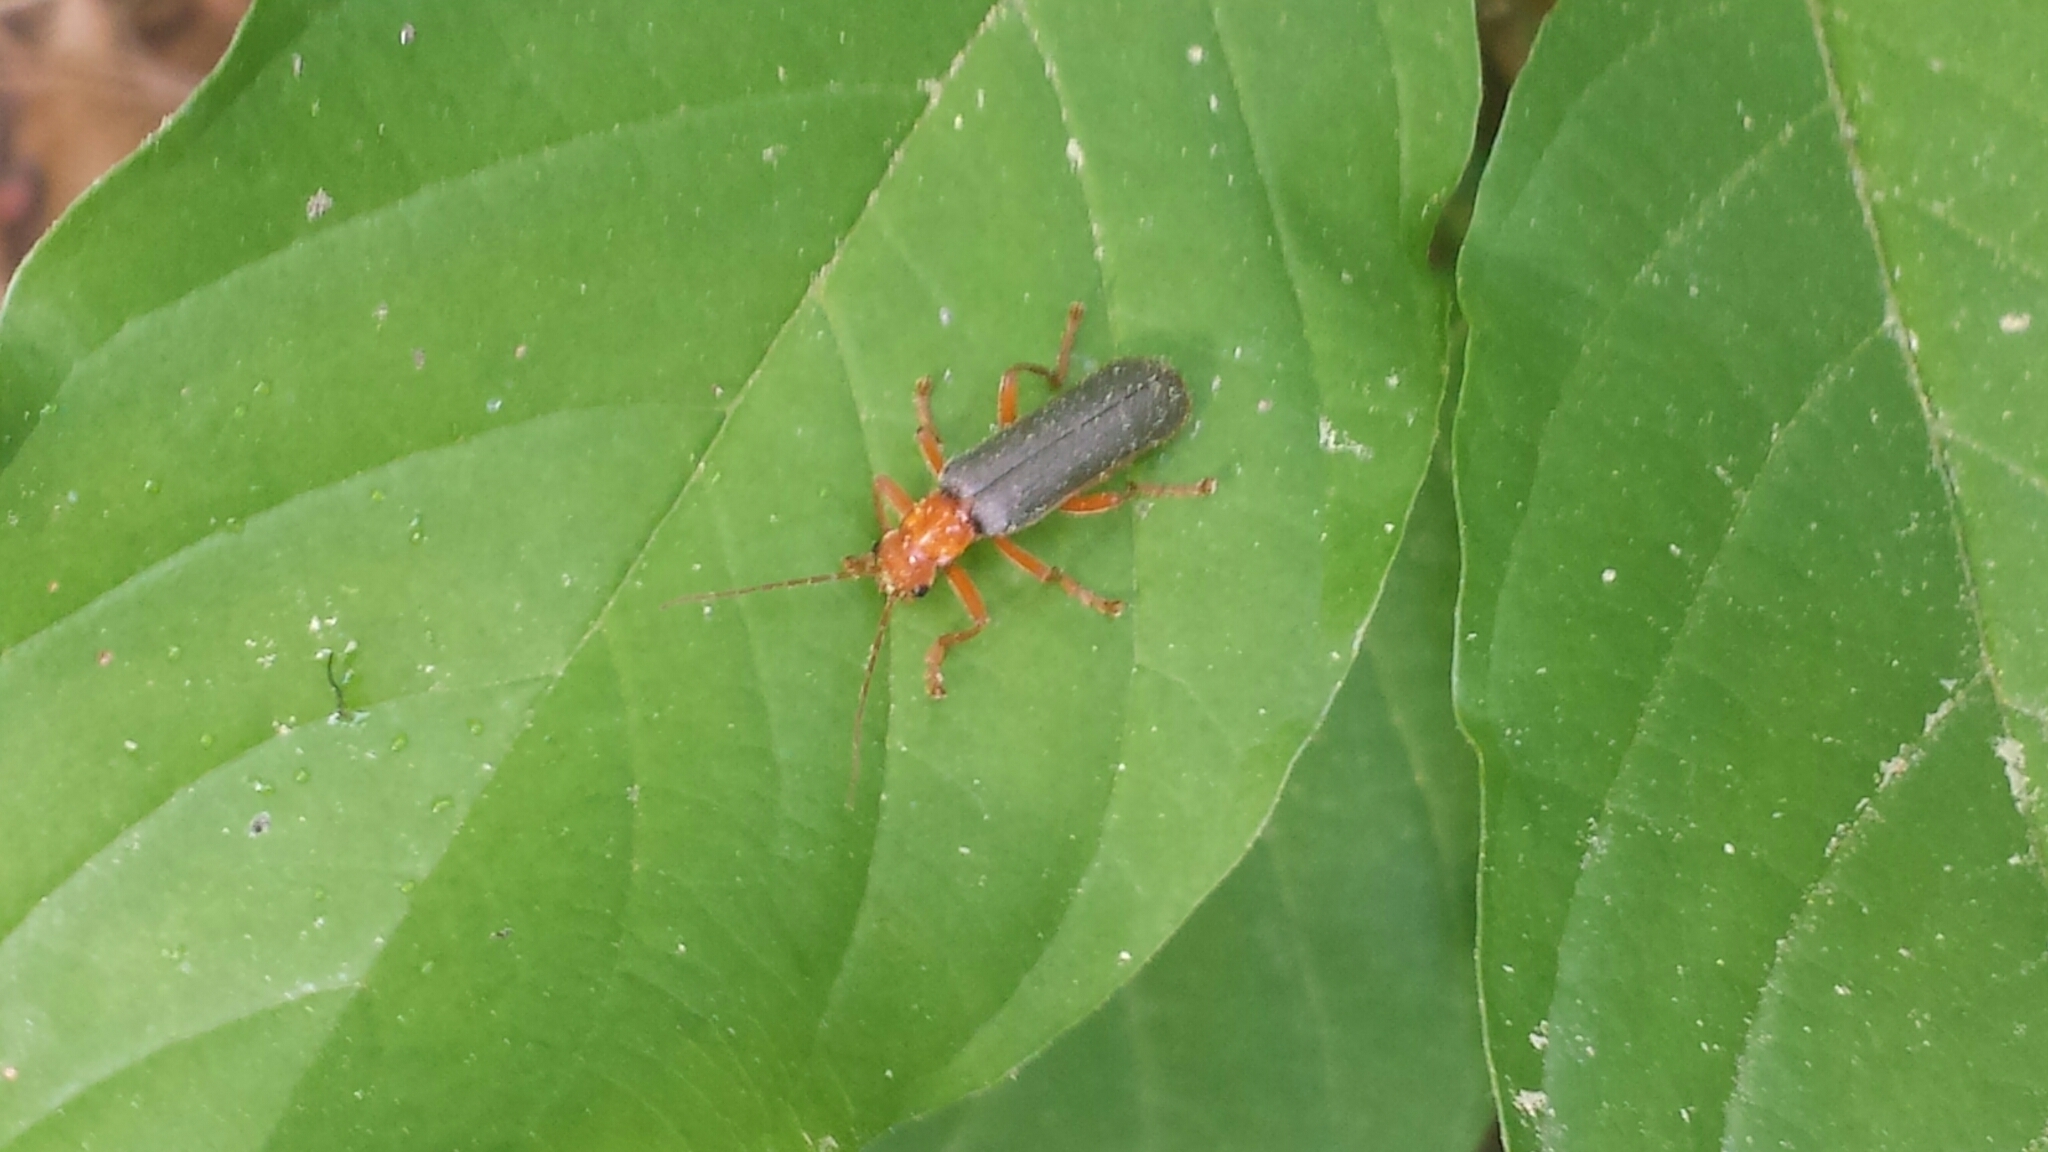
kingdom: Animalia
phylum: Arthropoda
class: Insecta
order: Coleoptera
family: Cantharidae
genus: Pacificanthia
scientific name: Pacificanthia rotundicollis
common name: Brown leatherwing beetle
